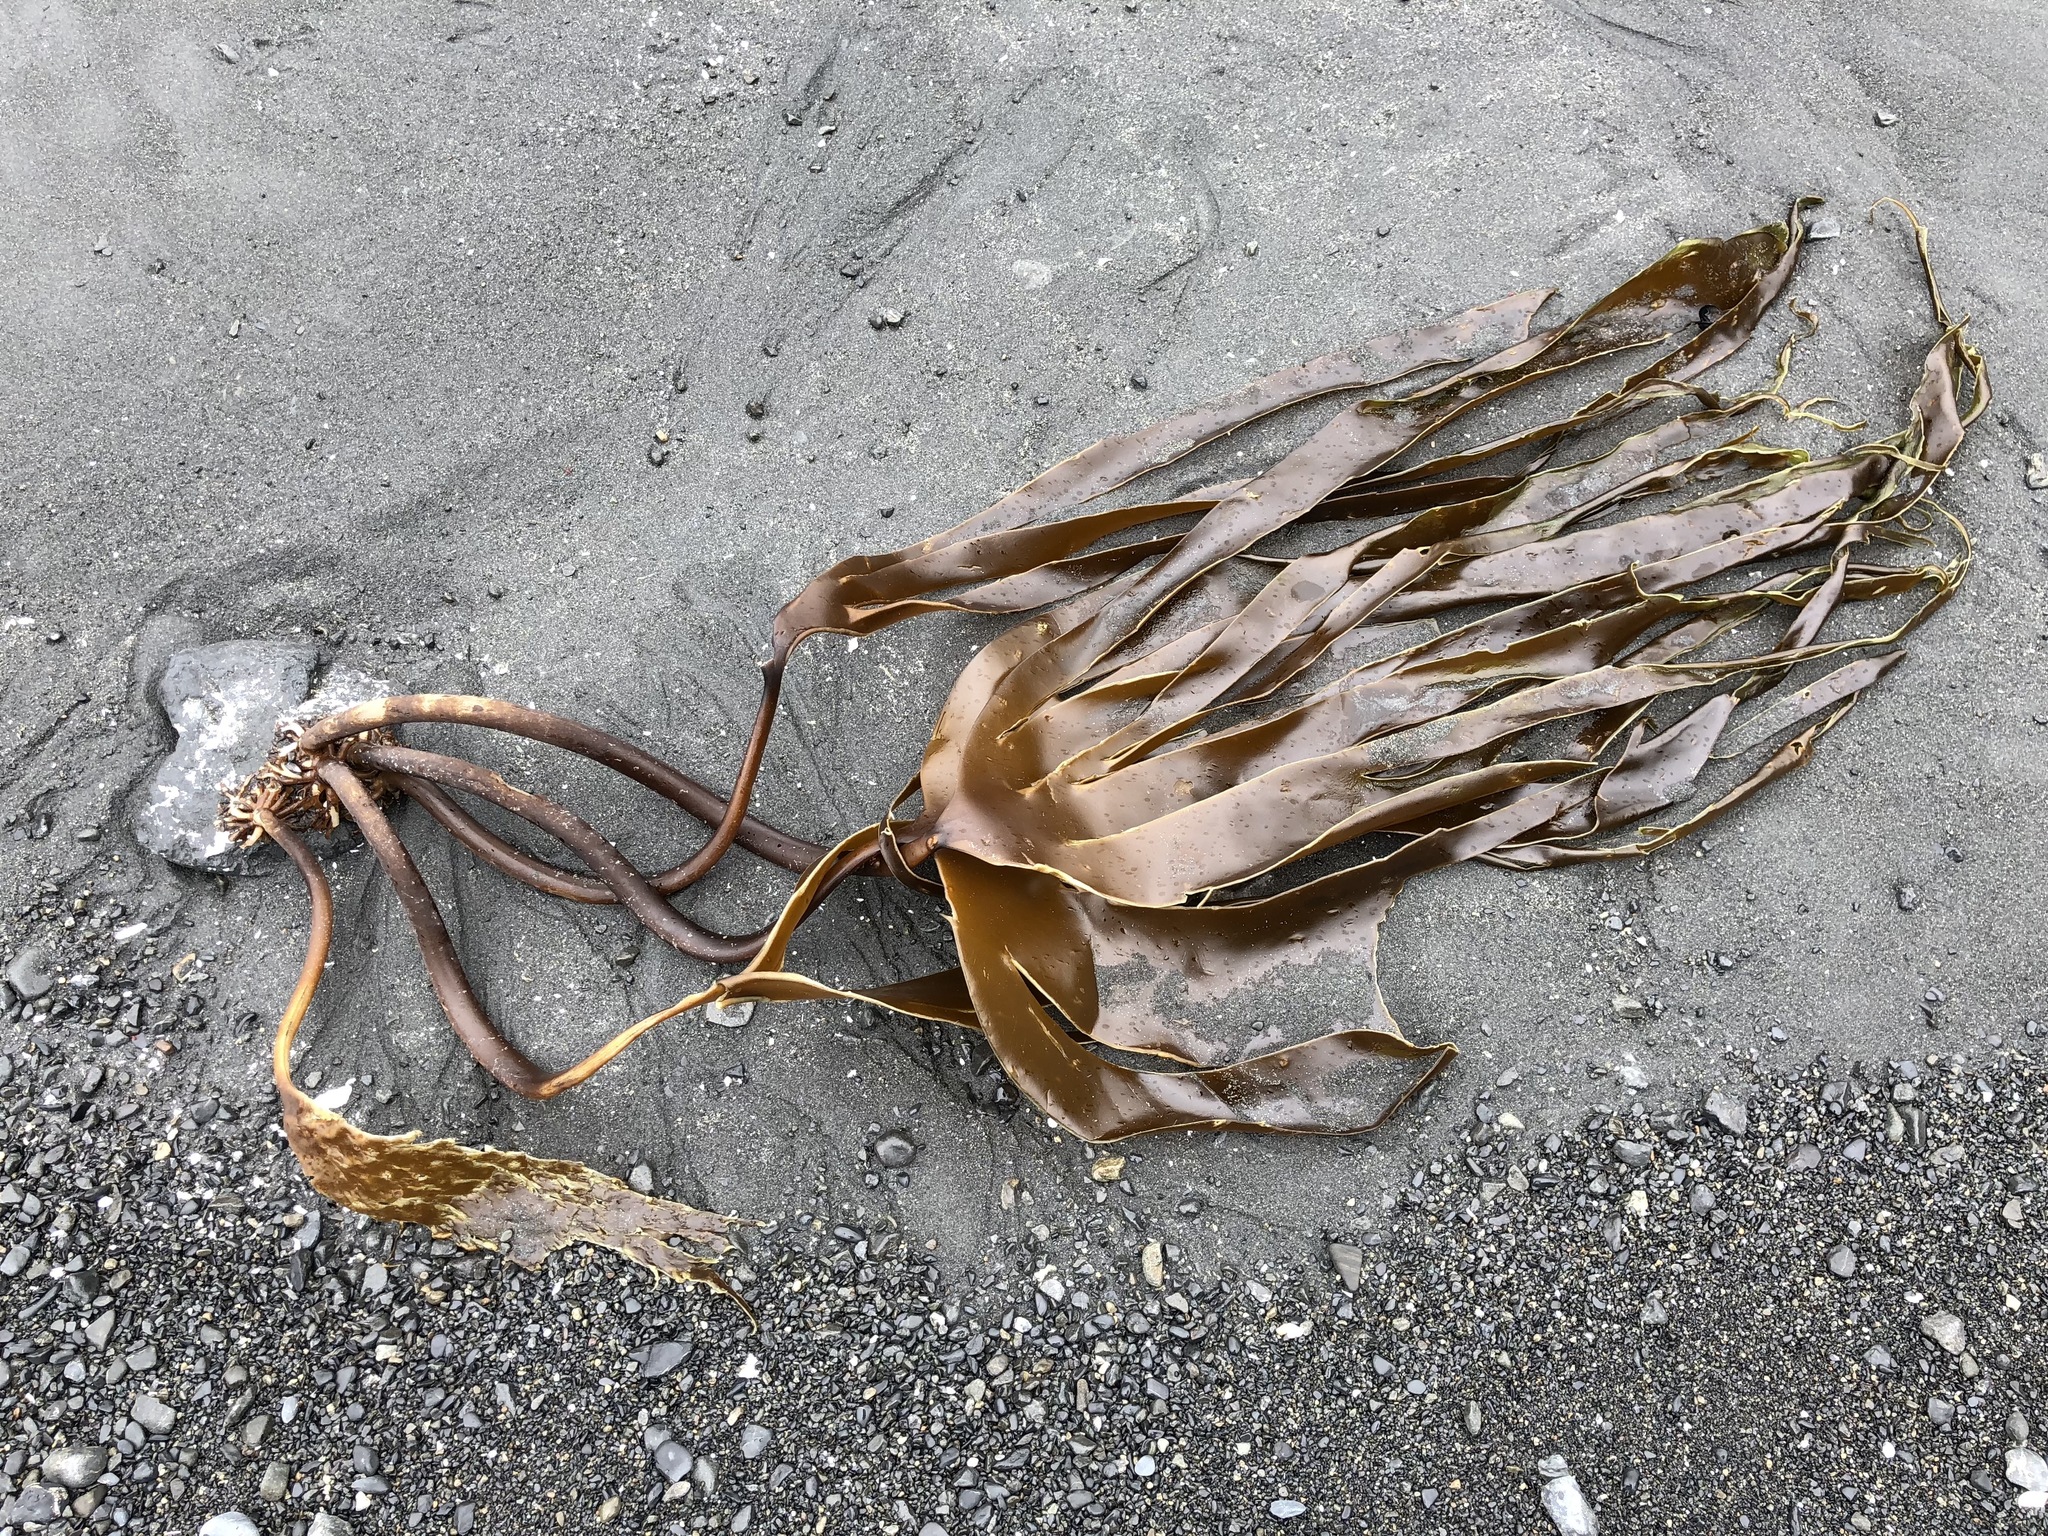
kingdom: Chromista
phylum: Ochrophyta
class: Phaeophyceae
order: Laminariales
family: Laminariaceae
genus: Hedophyllum
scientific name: Hedophyllum
